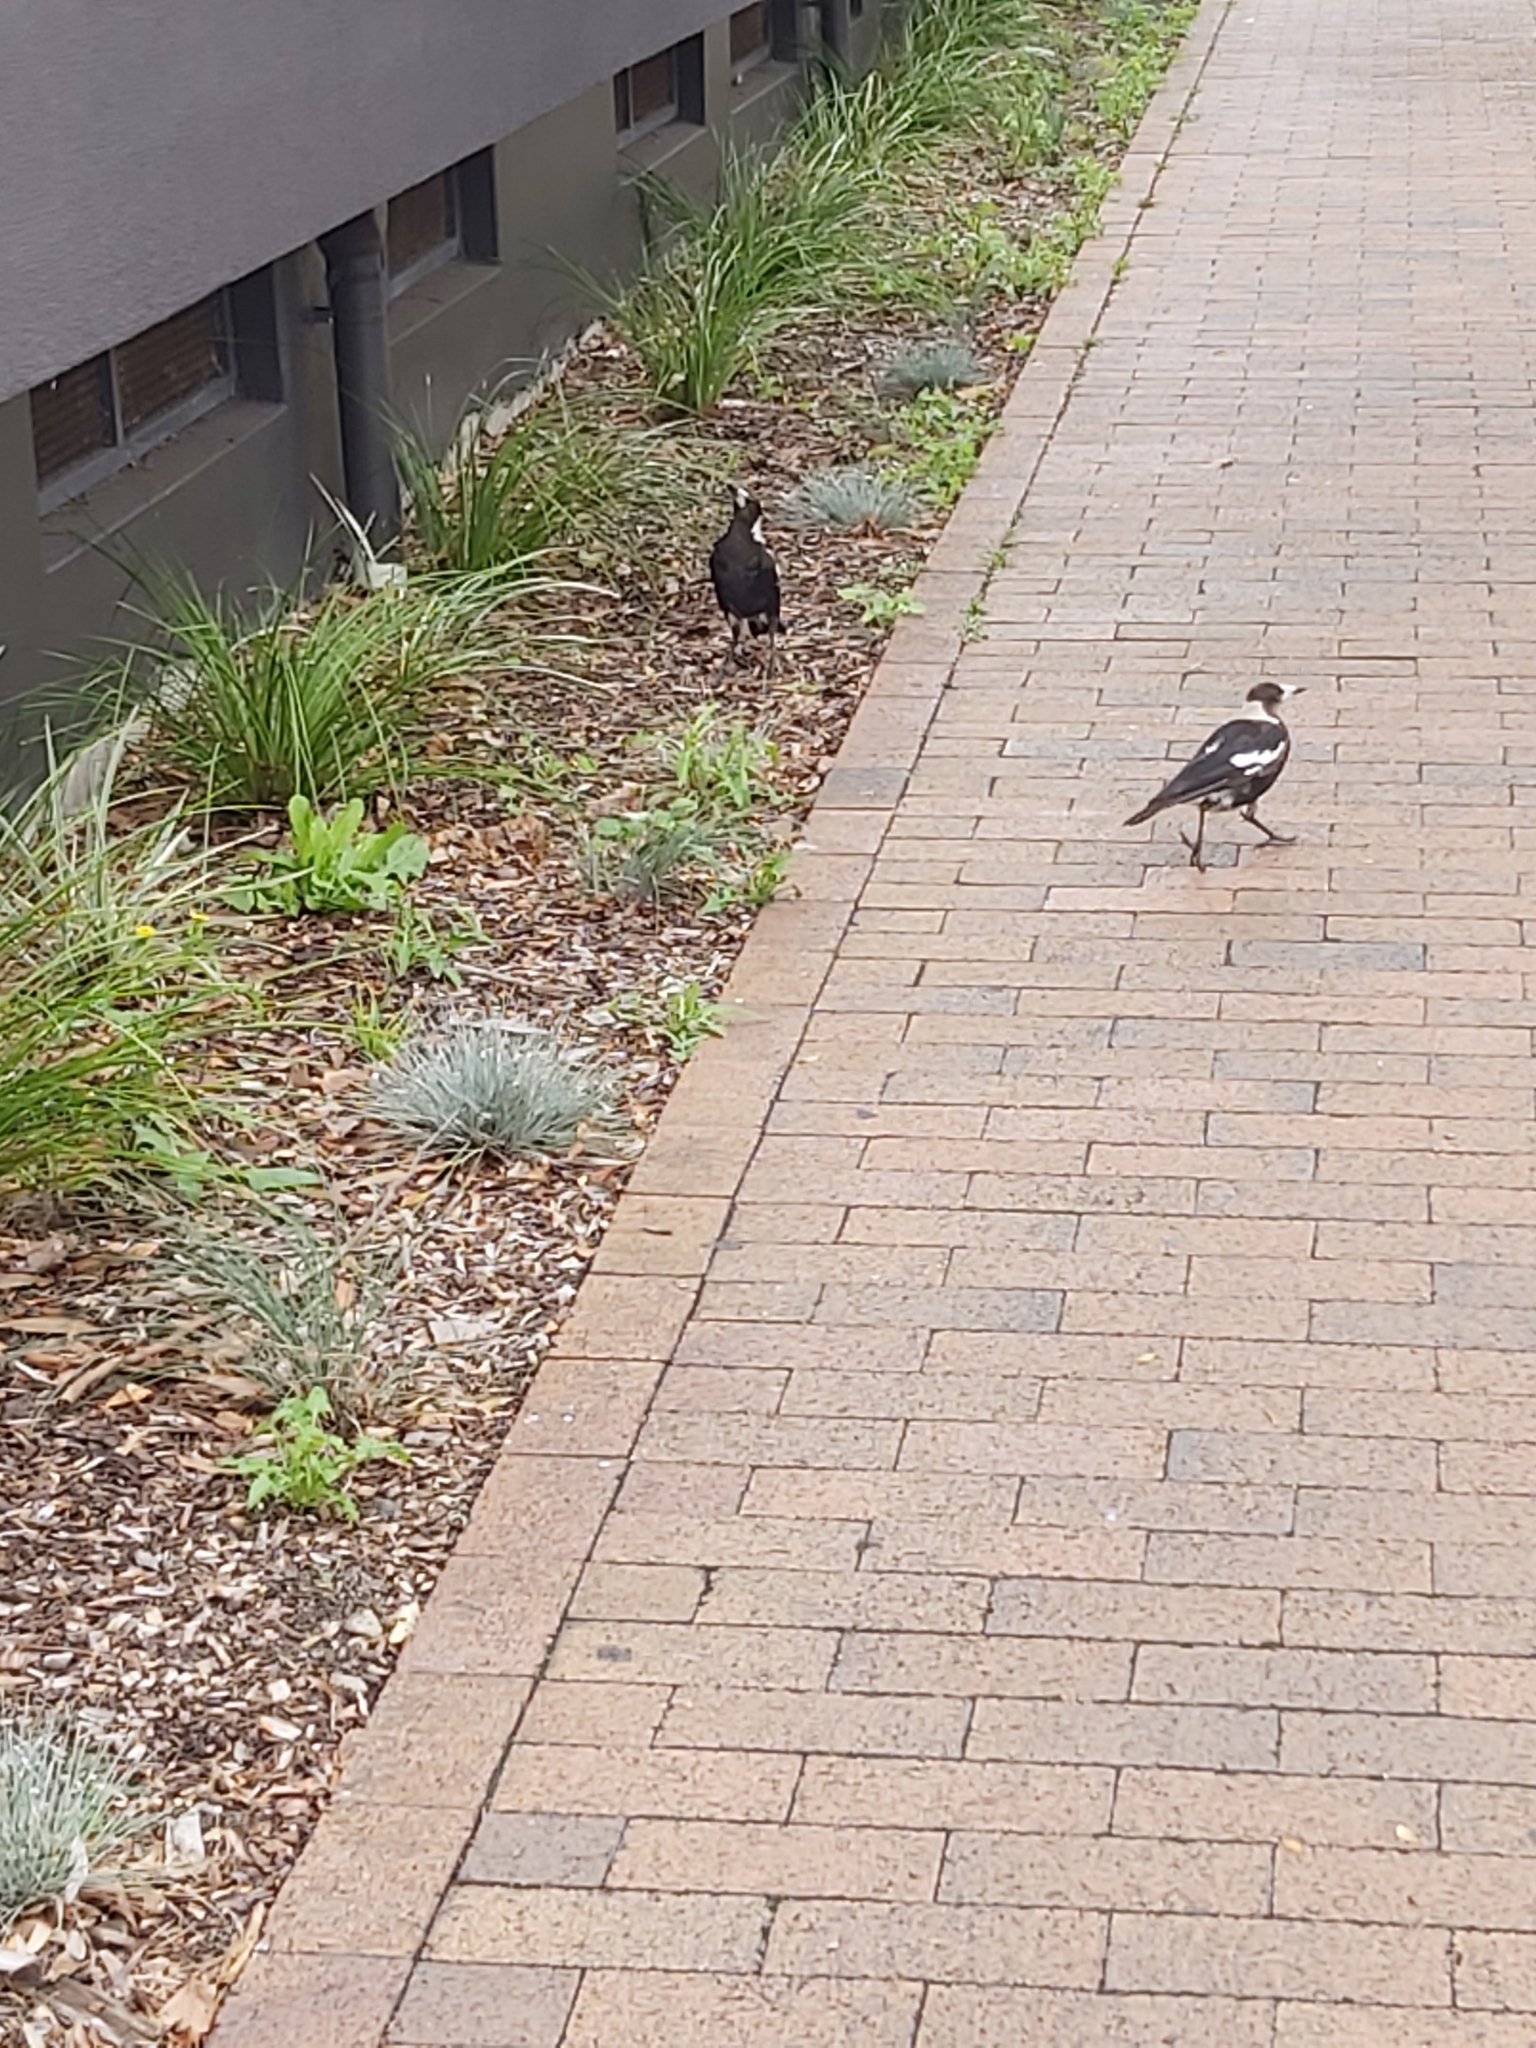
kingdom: Animalia
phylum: Chordata
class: Aves
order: Passeriformes
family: Cracticidae
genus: Gymnorhina
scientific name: Gymnorhina tibicen
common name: Australian magpie
